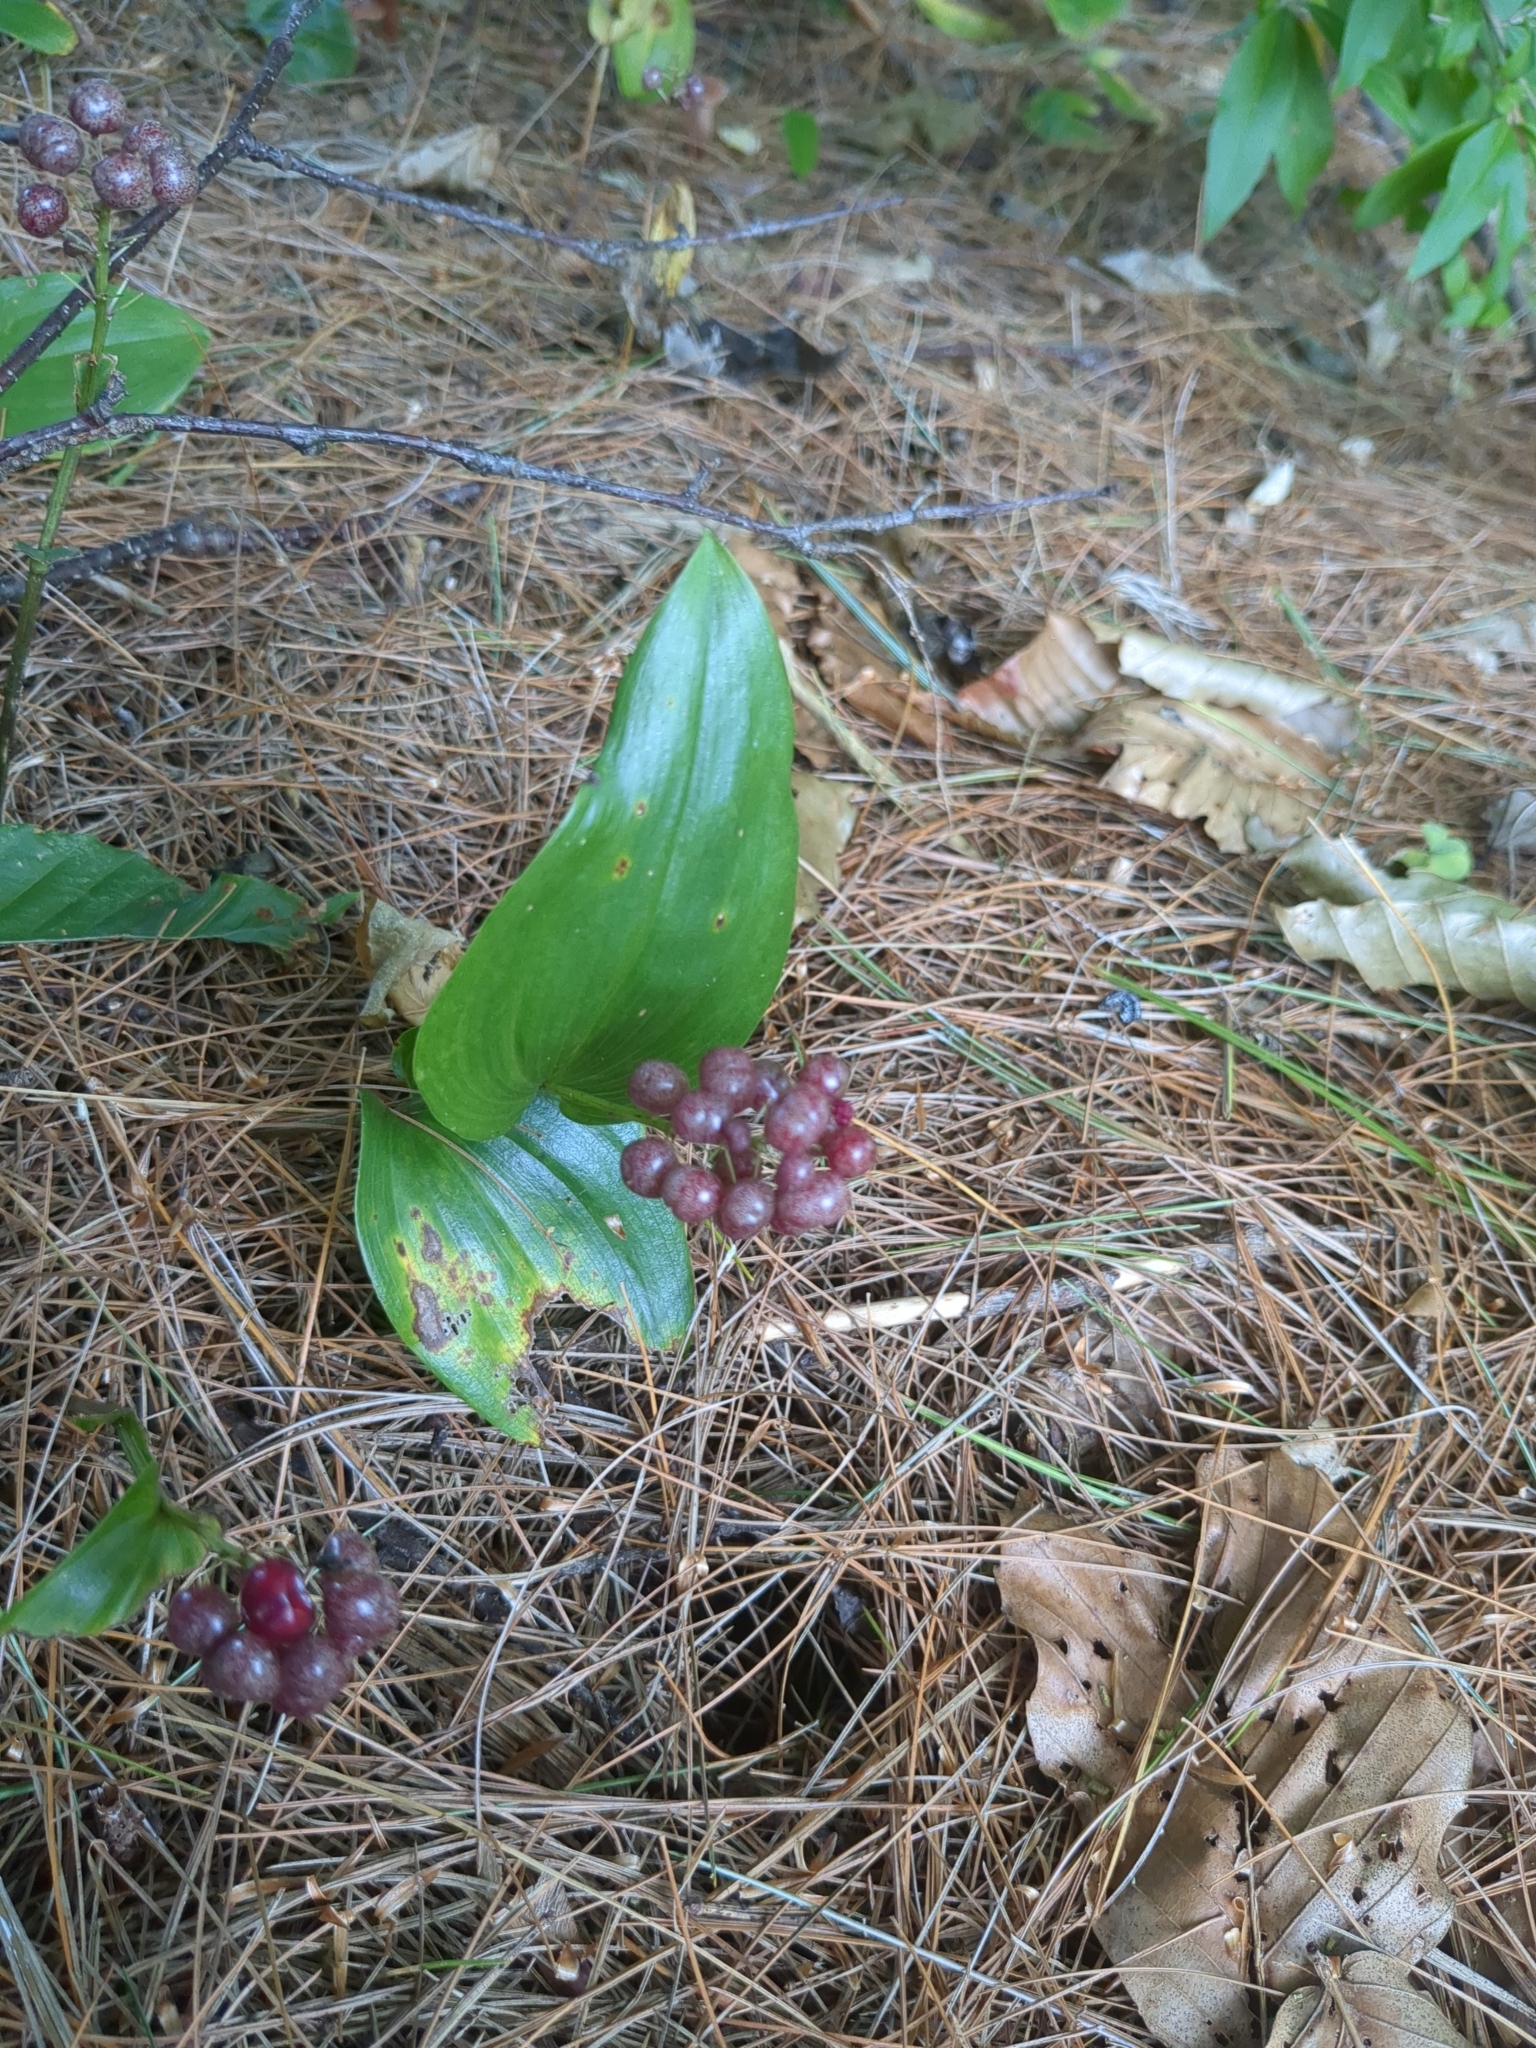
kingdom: Plantae
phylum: Tracheophyta
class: Liliopsida
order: Asparagales
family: Asparagaceae
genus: Maianthemum
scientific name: Maianthemum canadense
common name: False lily-of-the-valley
